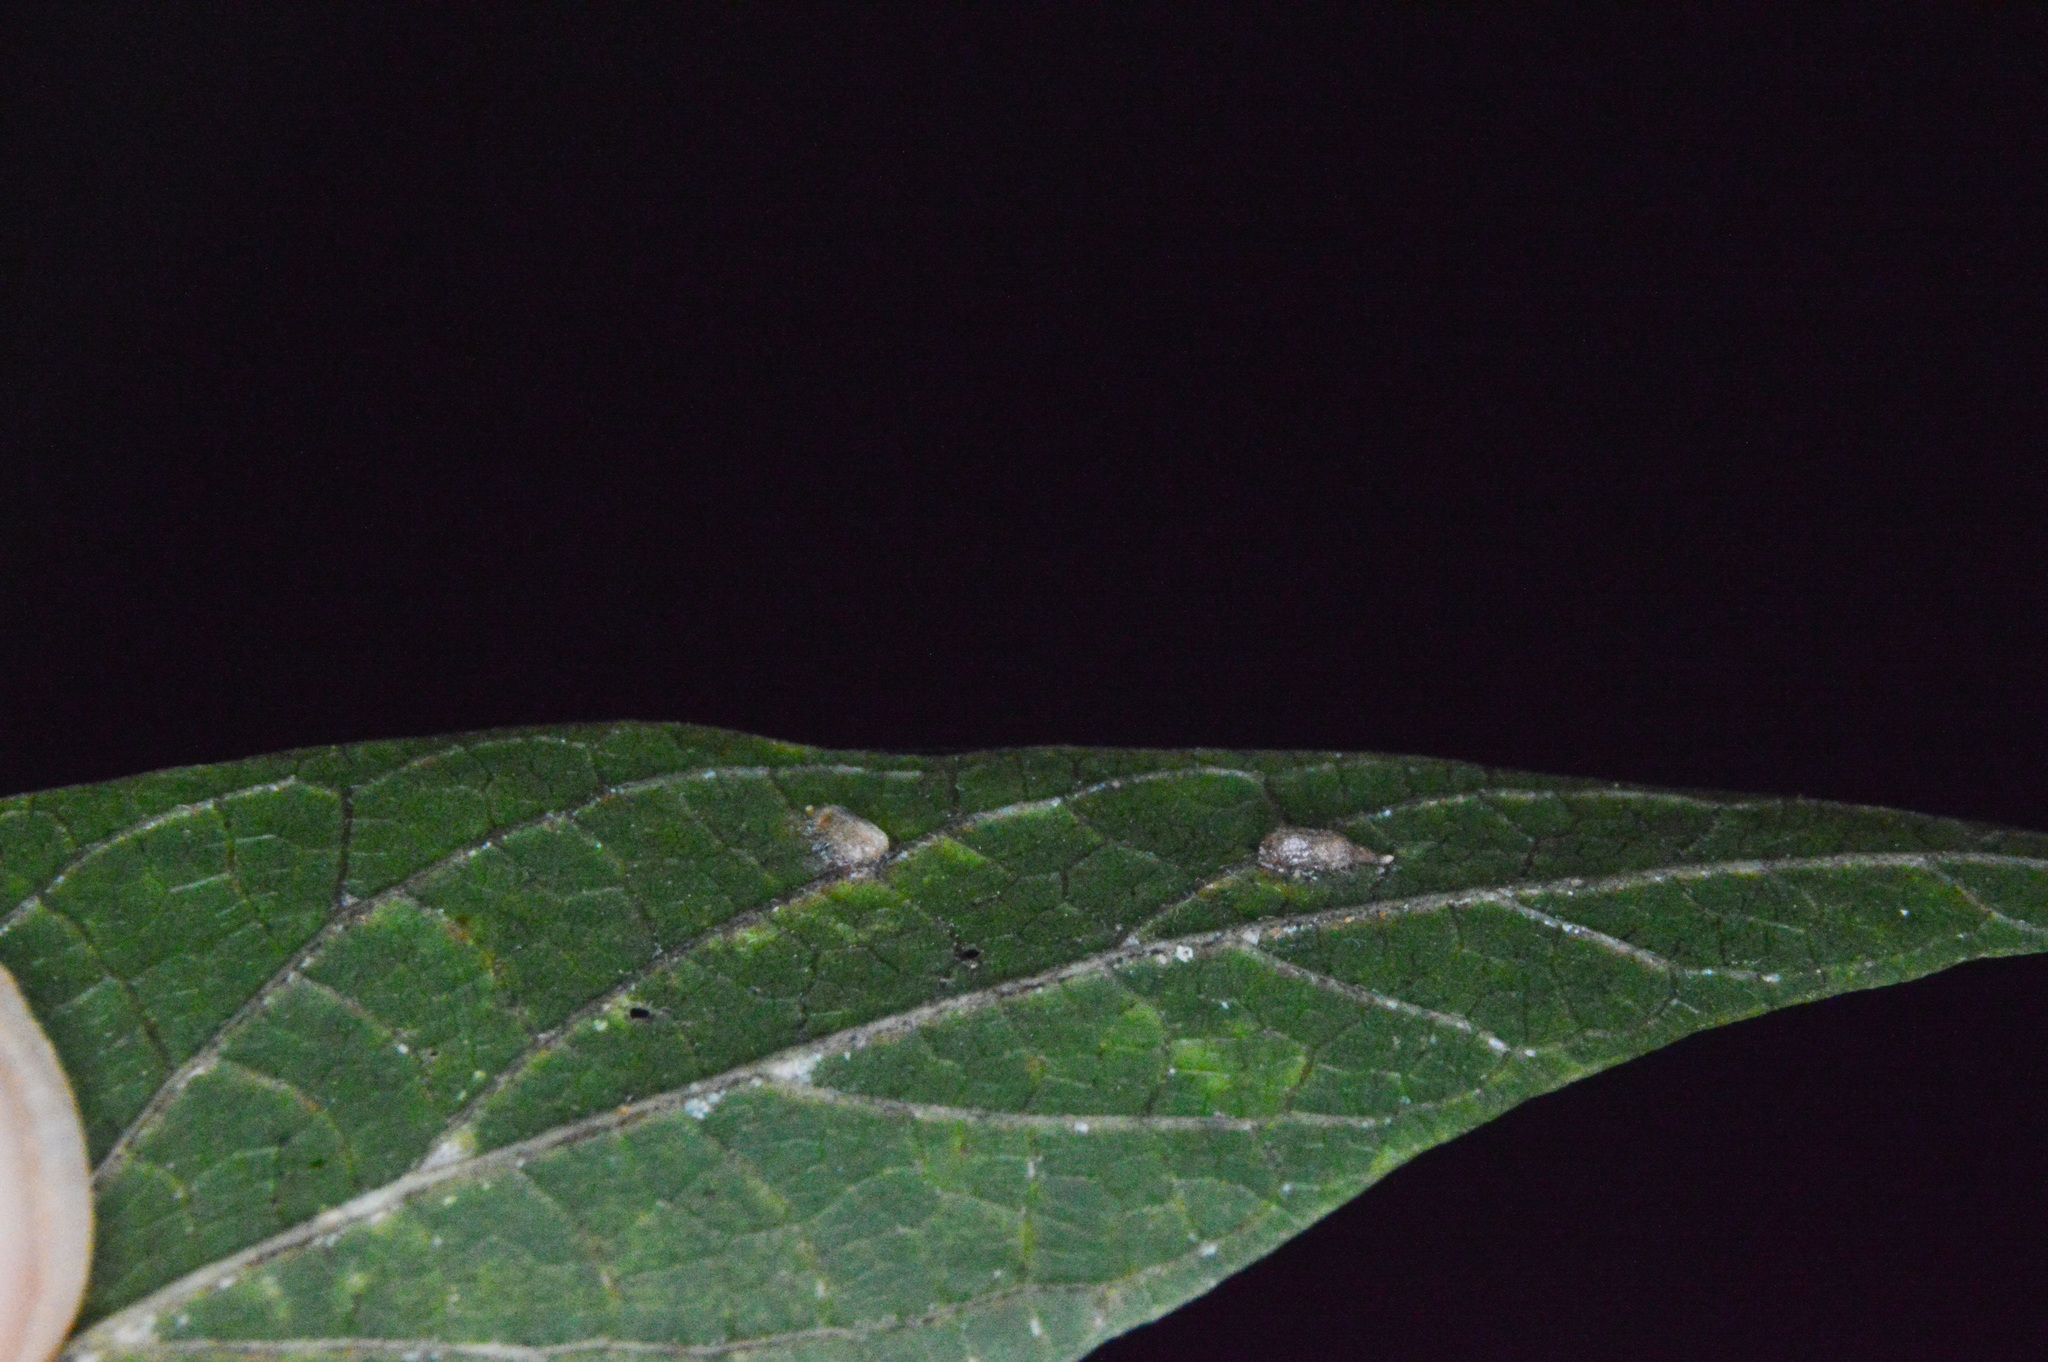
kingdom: Animalia
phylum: Arthropoda
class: Insecta
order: Diptera
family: Cecidomyiidae
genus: Celticecis
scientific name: Celticecis supina
